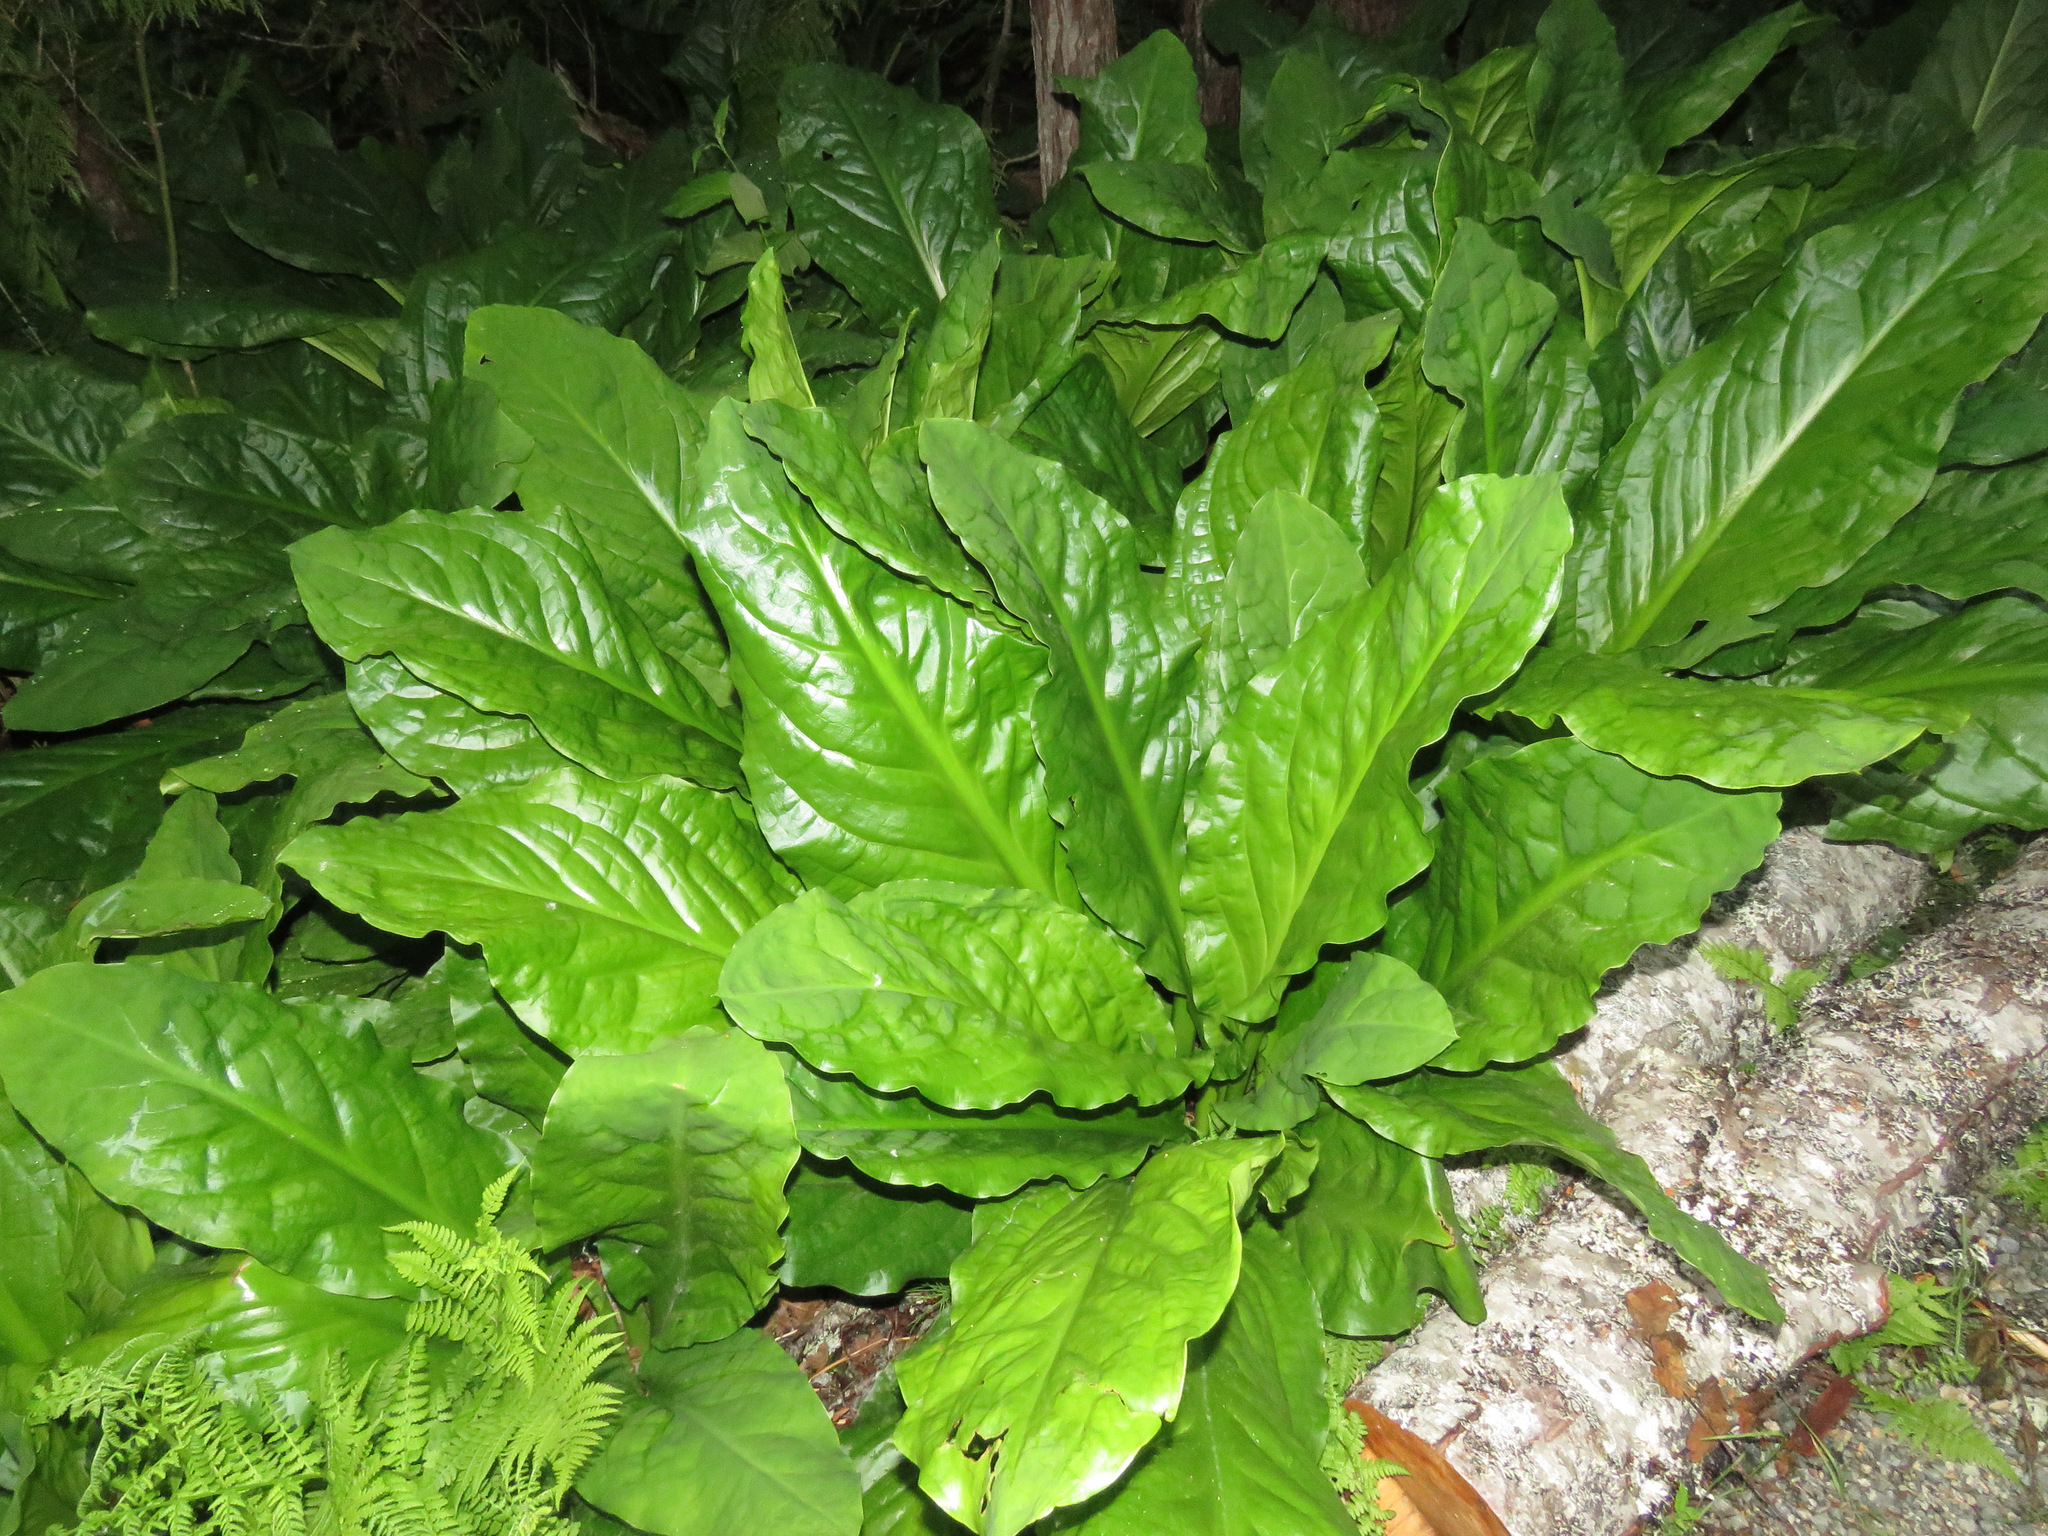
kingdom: Plantae
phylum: Tracheophyta
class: Liliopsida
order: Alismatales
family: Araceae
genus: Lysichiton
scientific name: Lysichiton americanus
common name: American skunk cabbage
